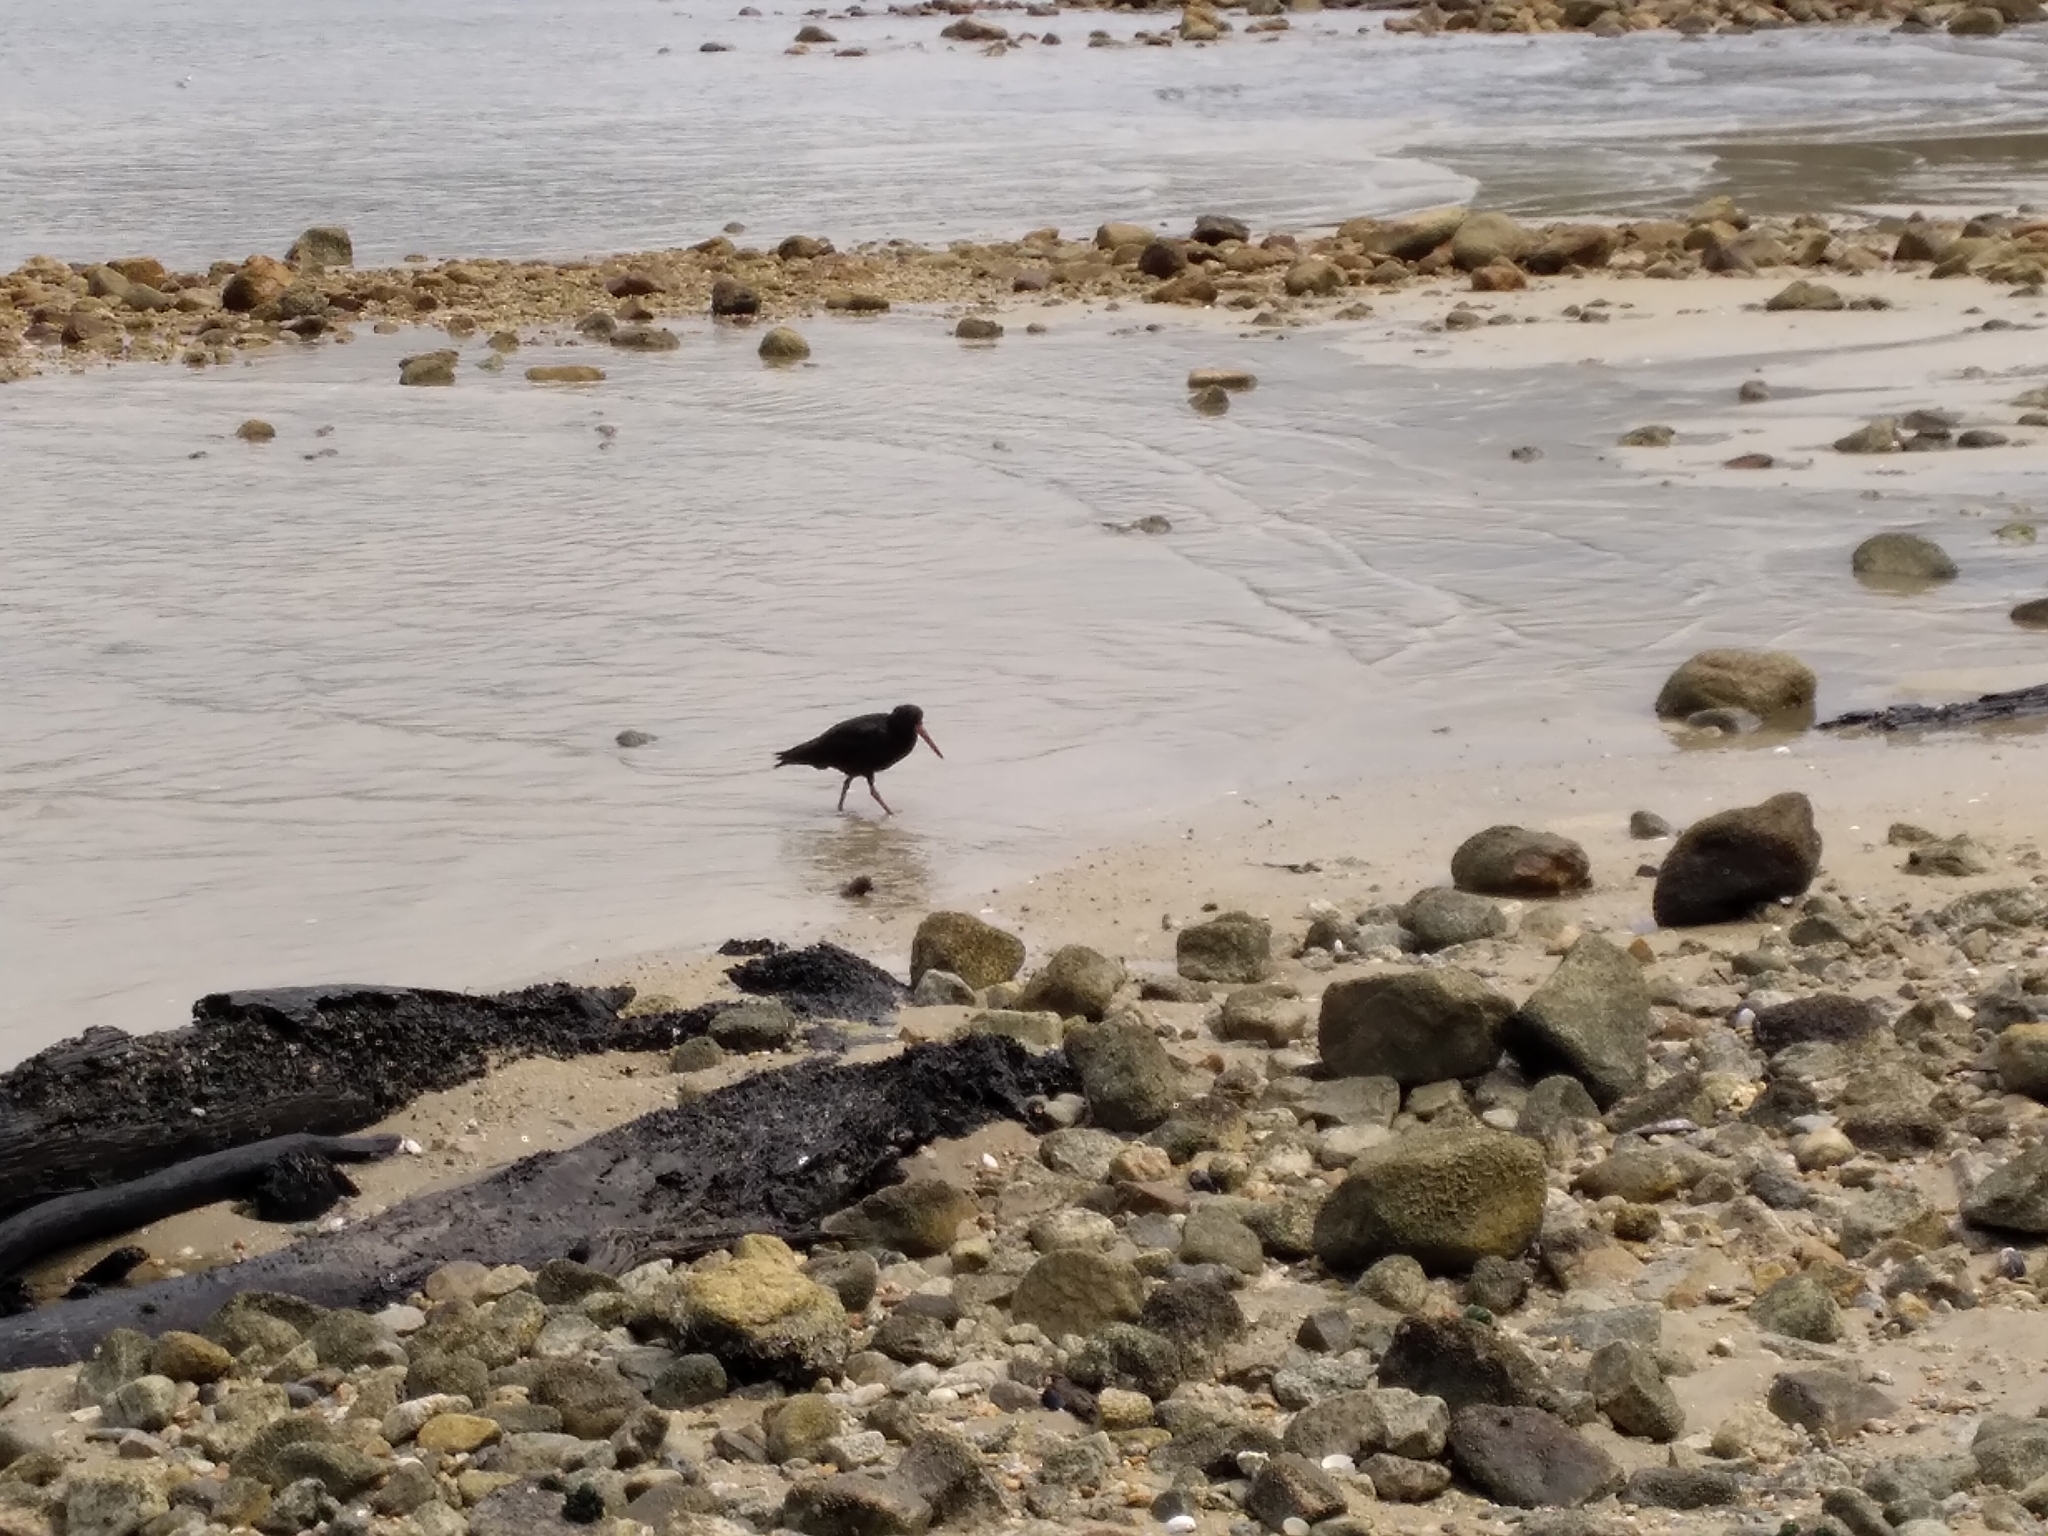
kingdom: Animalia
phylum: Chordata
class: Aves
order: Charadriiformes
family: Haematopodidae
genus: Haematopus
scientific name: Haematopus unicolor
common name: Variable oystercatcher
